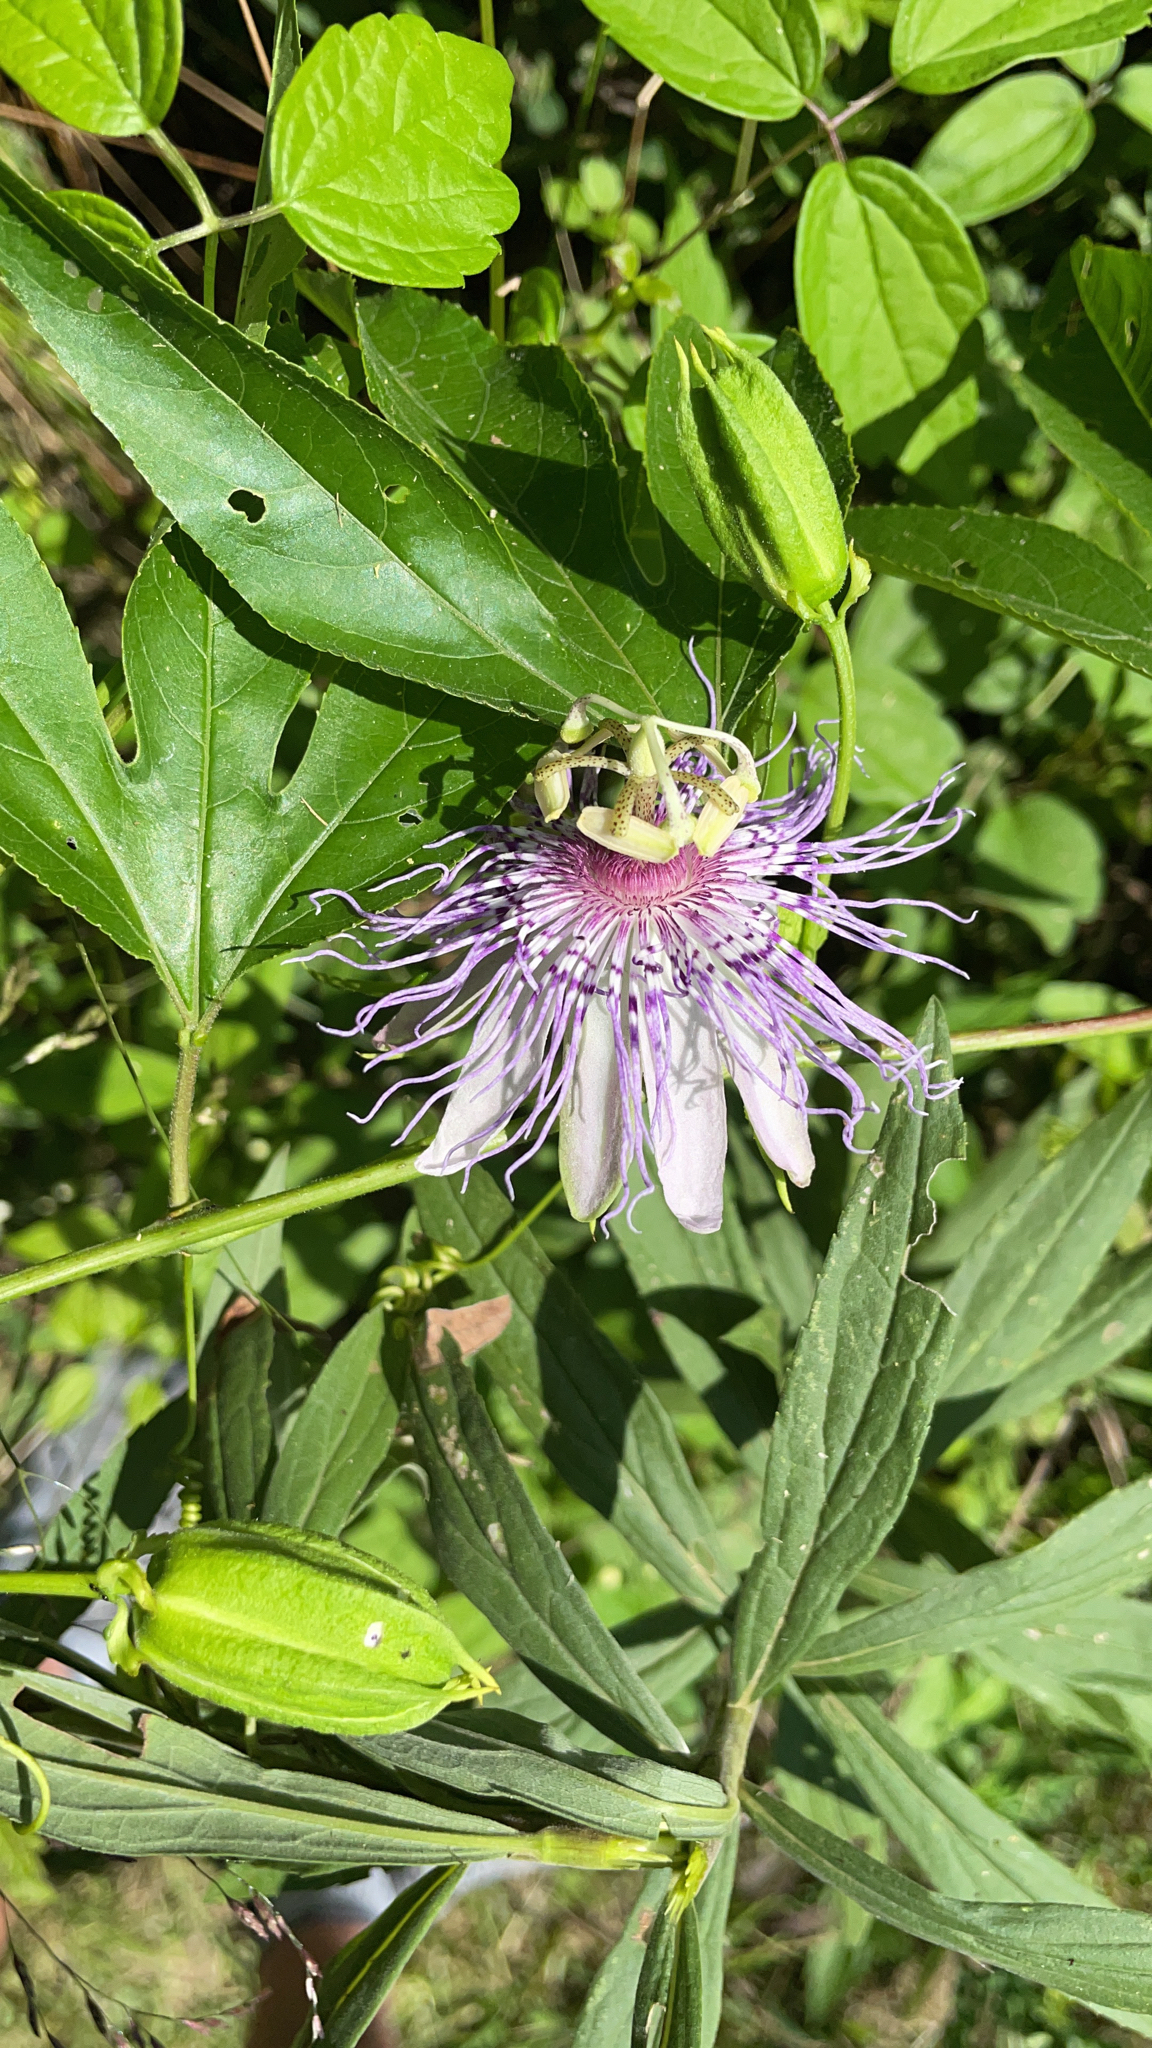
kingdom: Plantae
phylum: Tracheophyta
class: Magnoliopsida
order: Malpighiales
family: Passifloraceae
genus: Passiflora
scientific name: Passiflora incarnata
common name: Apricot-vine
